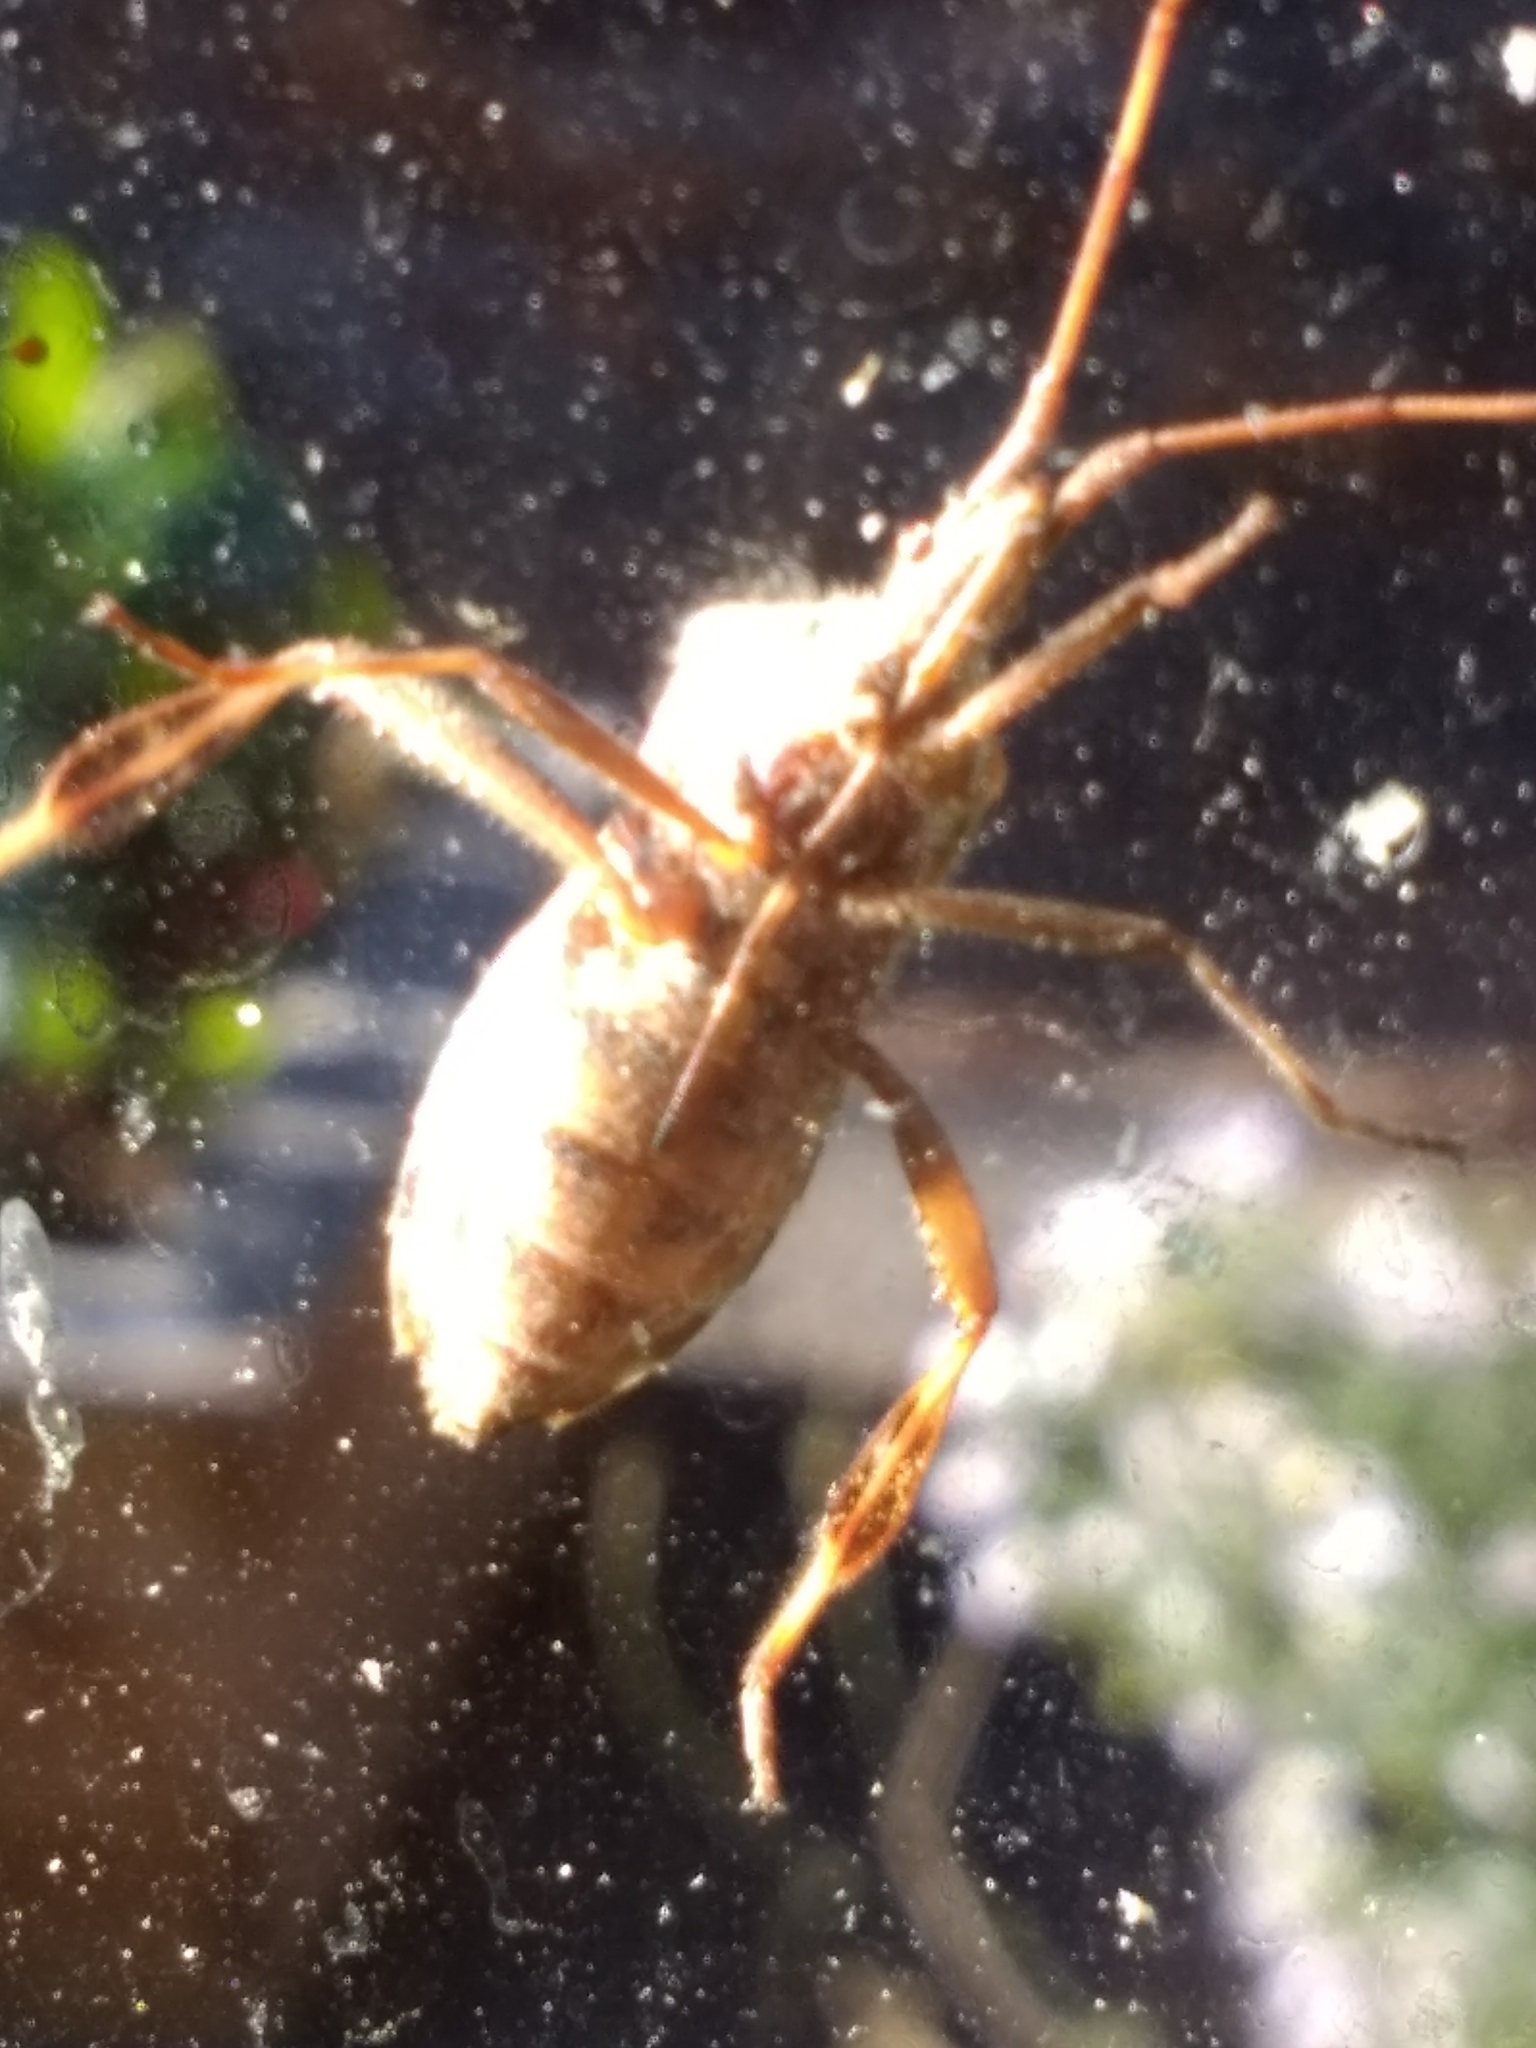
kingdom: Animalia
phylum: Arthropoda
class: Insecta
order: Hemiptera
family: Coreidae
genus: Leptoglossus
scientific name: Leptoglossus occidentalis
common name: Western conifer-seed bug
